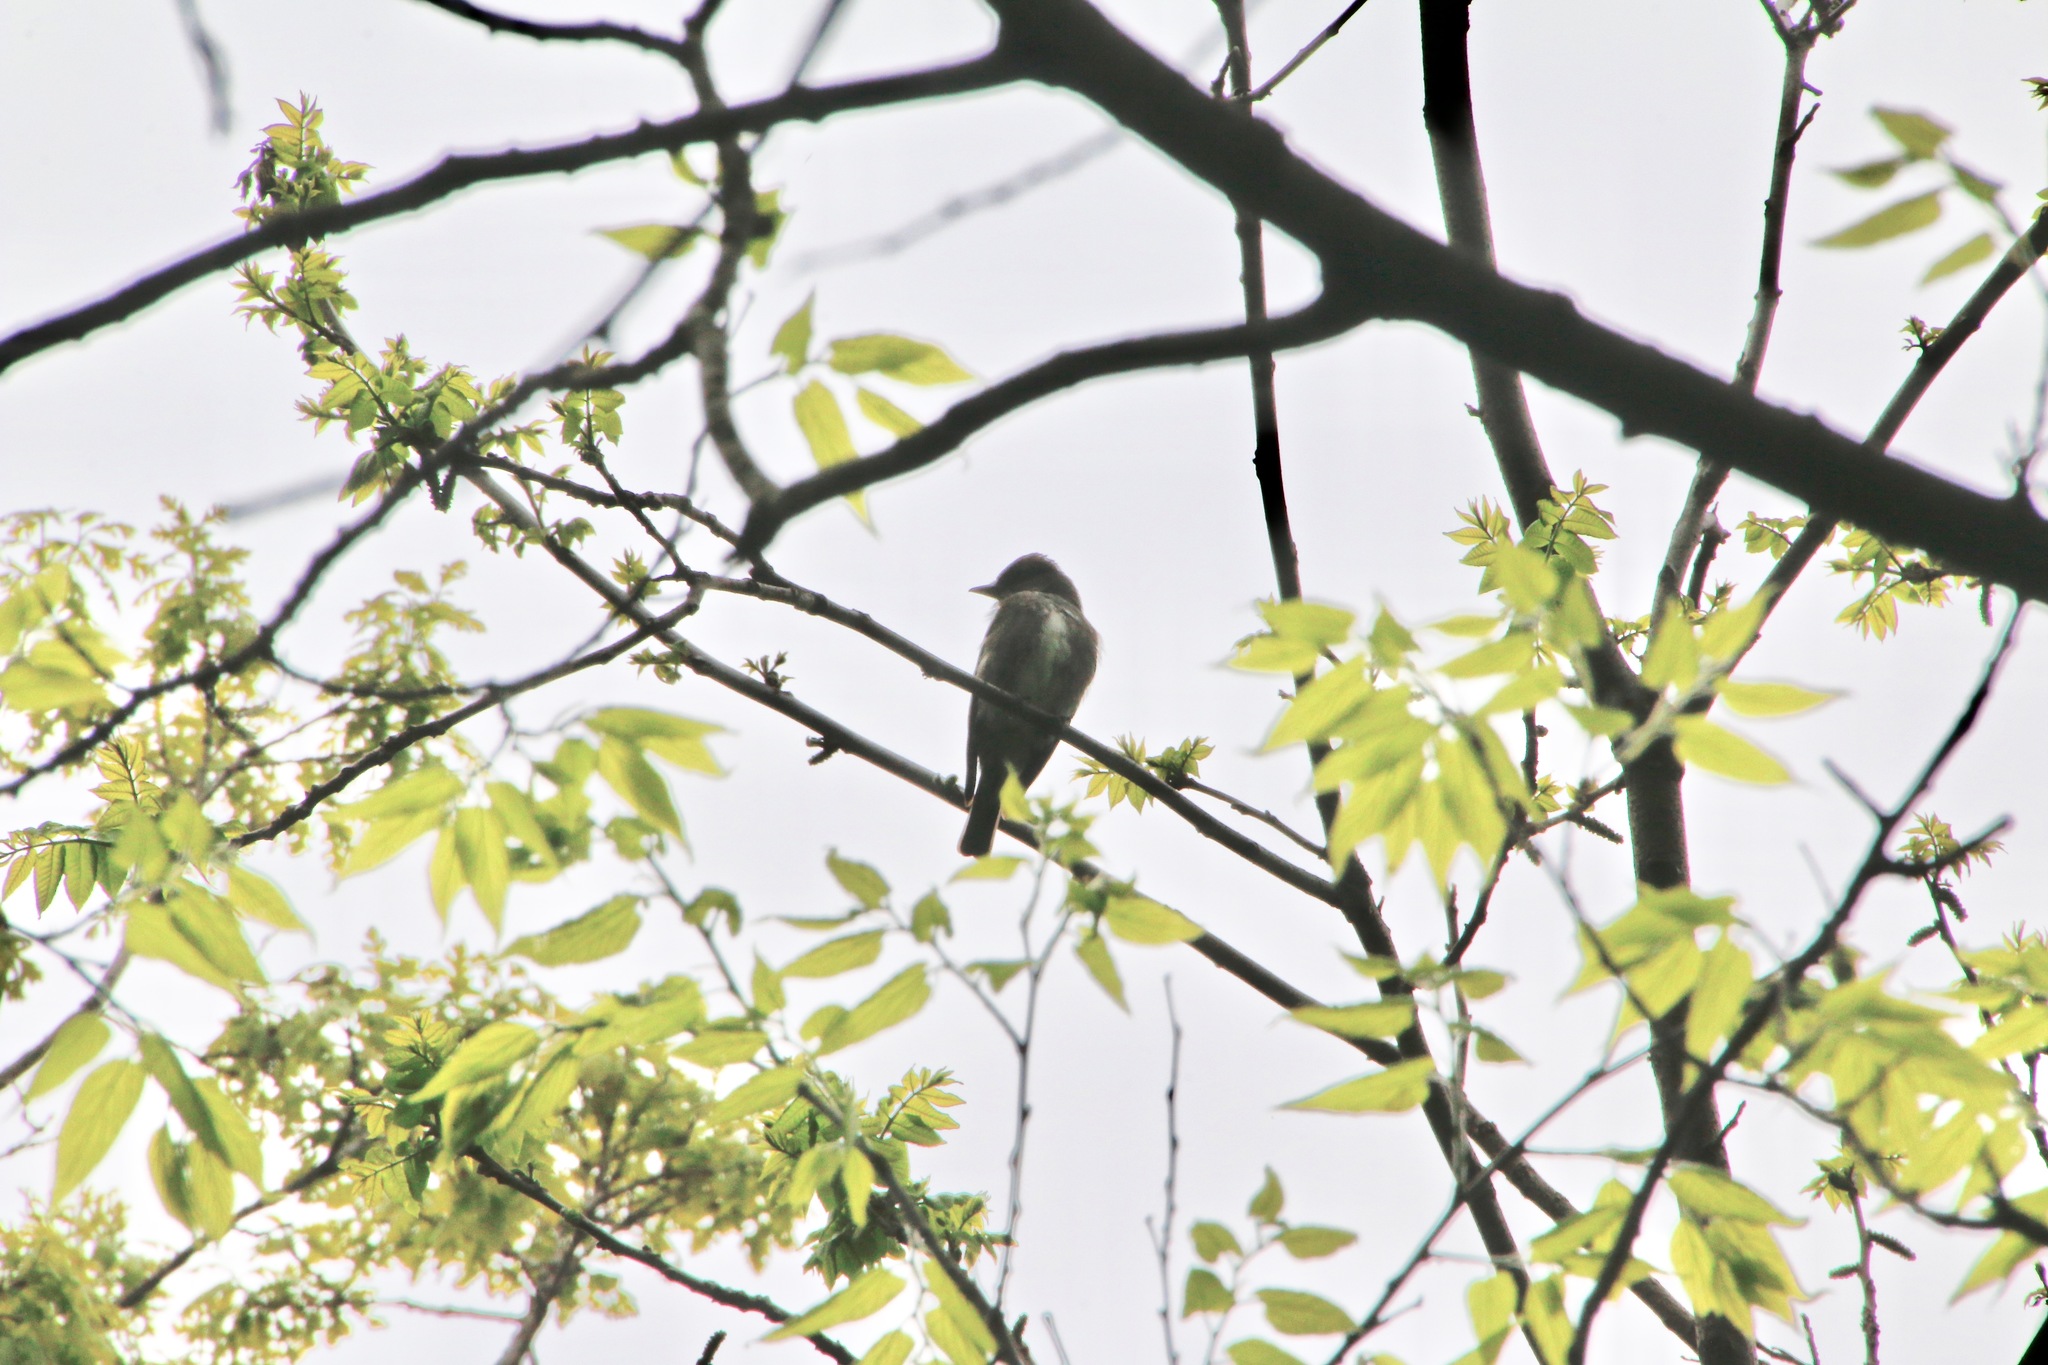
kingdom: Animalia
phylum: Chordata
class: Aves
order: Passeriformes
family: Tyrannidae
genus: Contopus
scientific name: Contopus cooperi
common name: Olive-sided flycatcher
